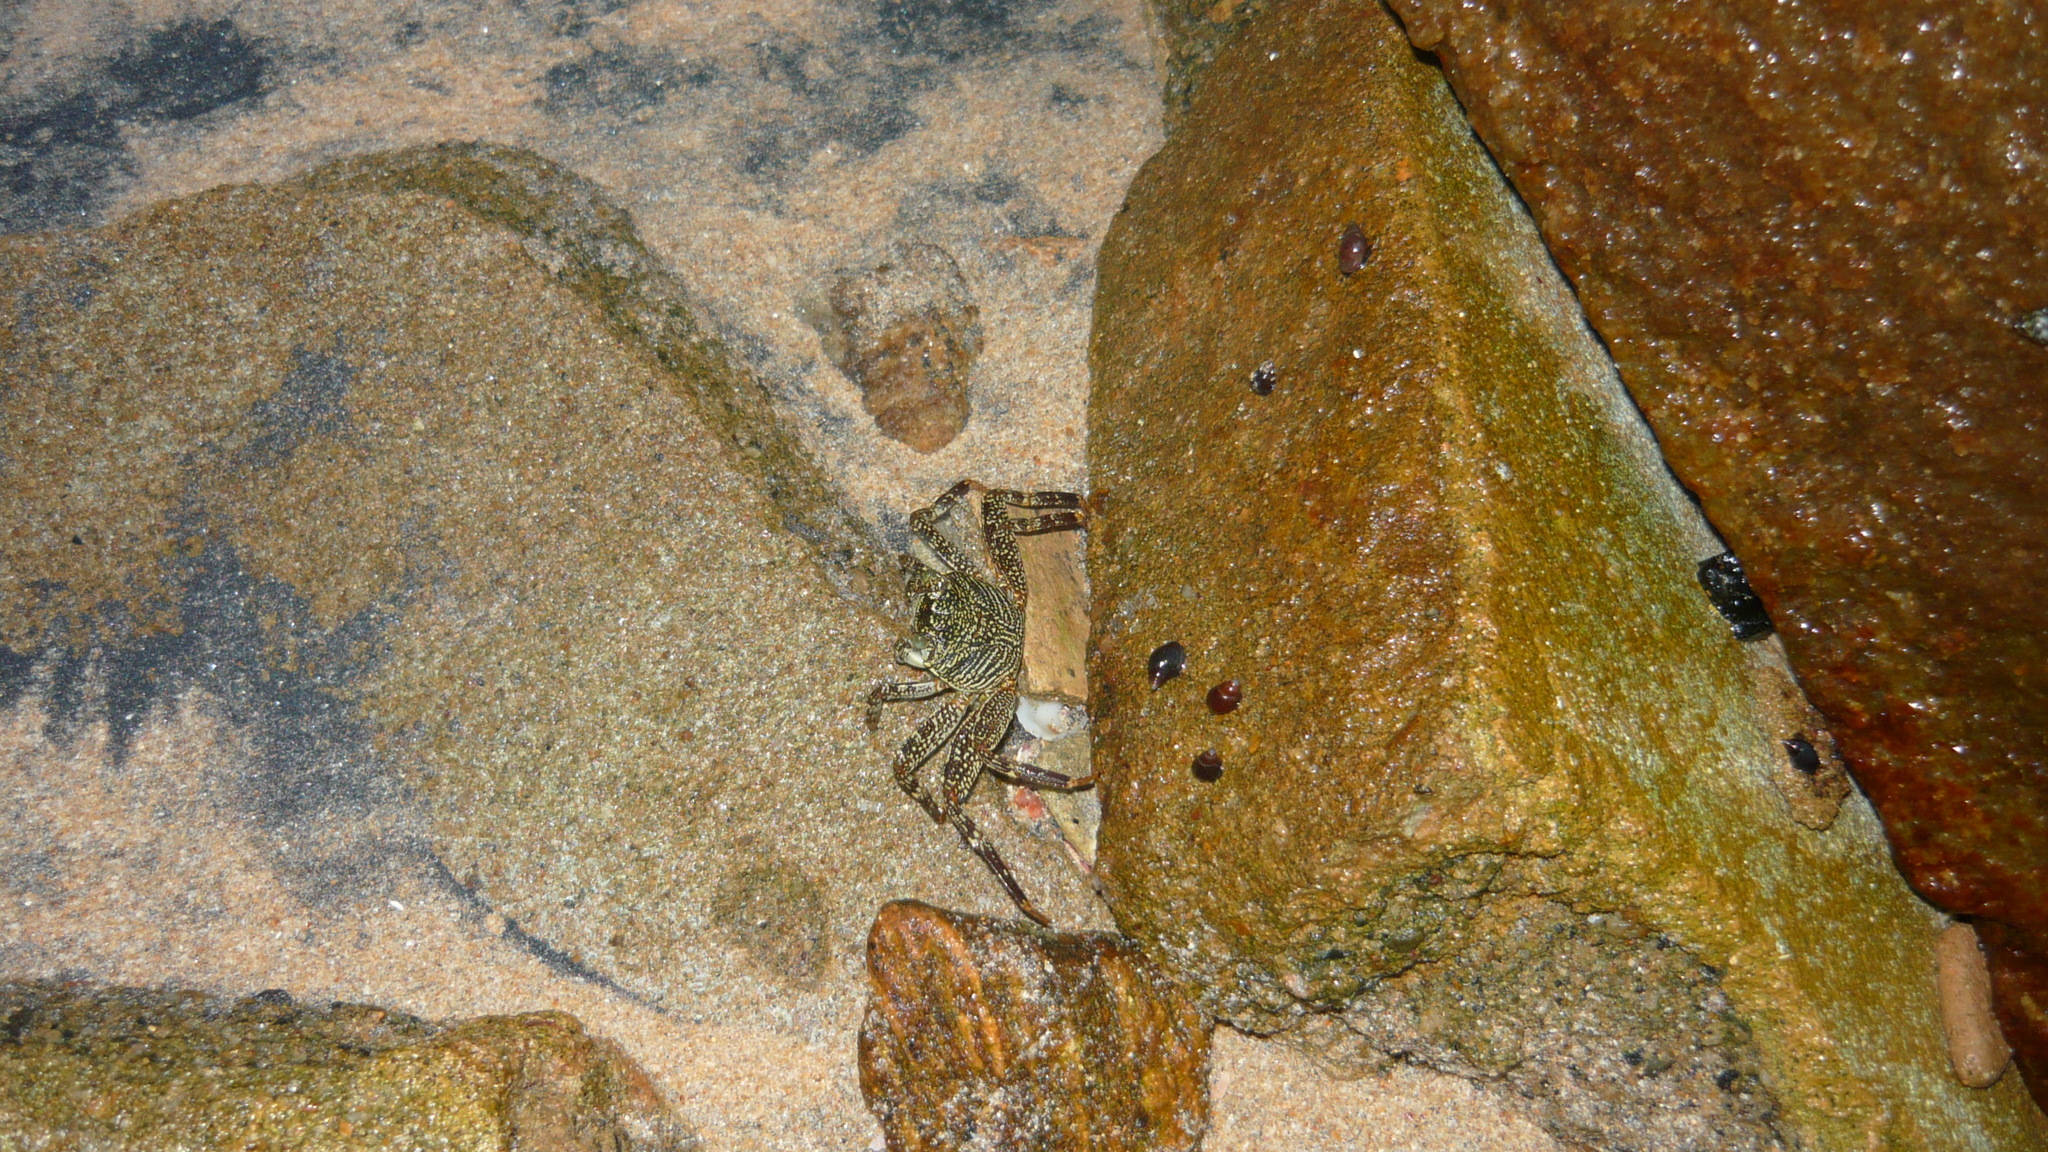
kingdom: Animalia
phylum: Arthropoda
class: Malacostraca
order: Decapoda
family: Grapsidae
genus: Grapsus
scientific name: Grapsus albolineatus
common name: Mottled lightfoot crab
